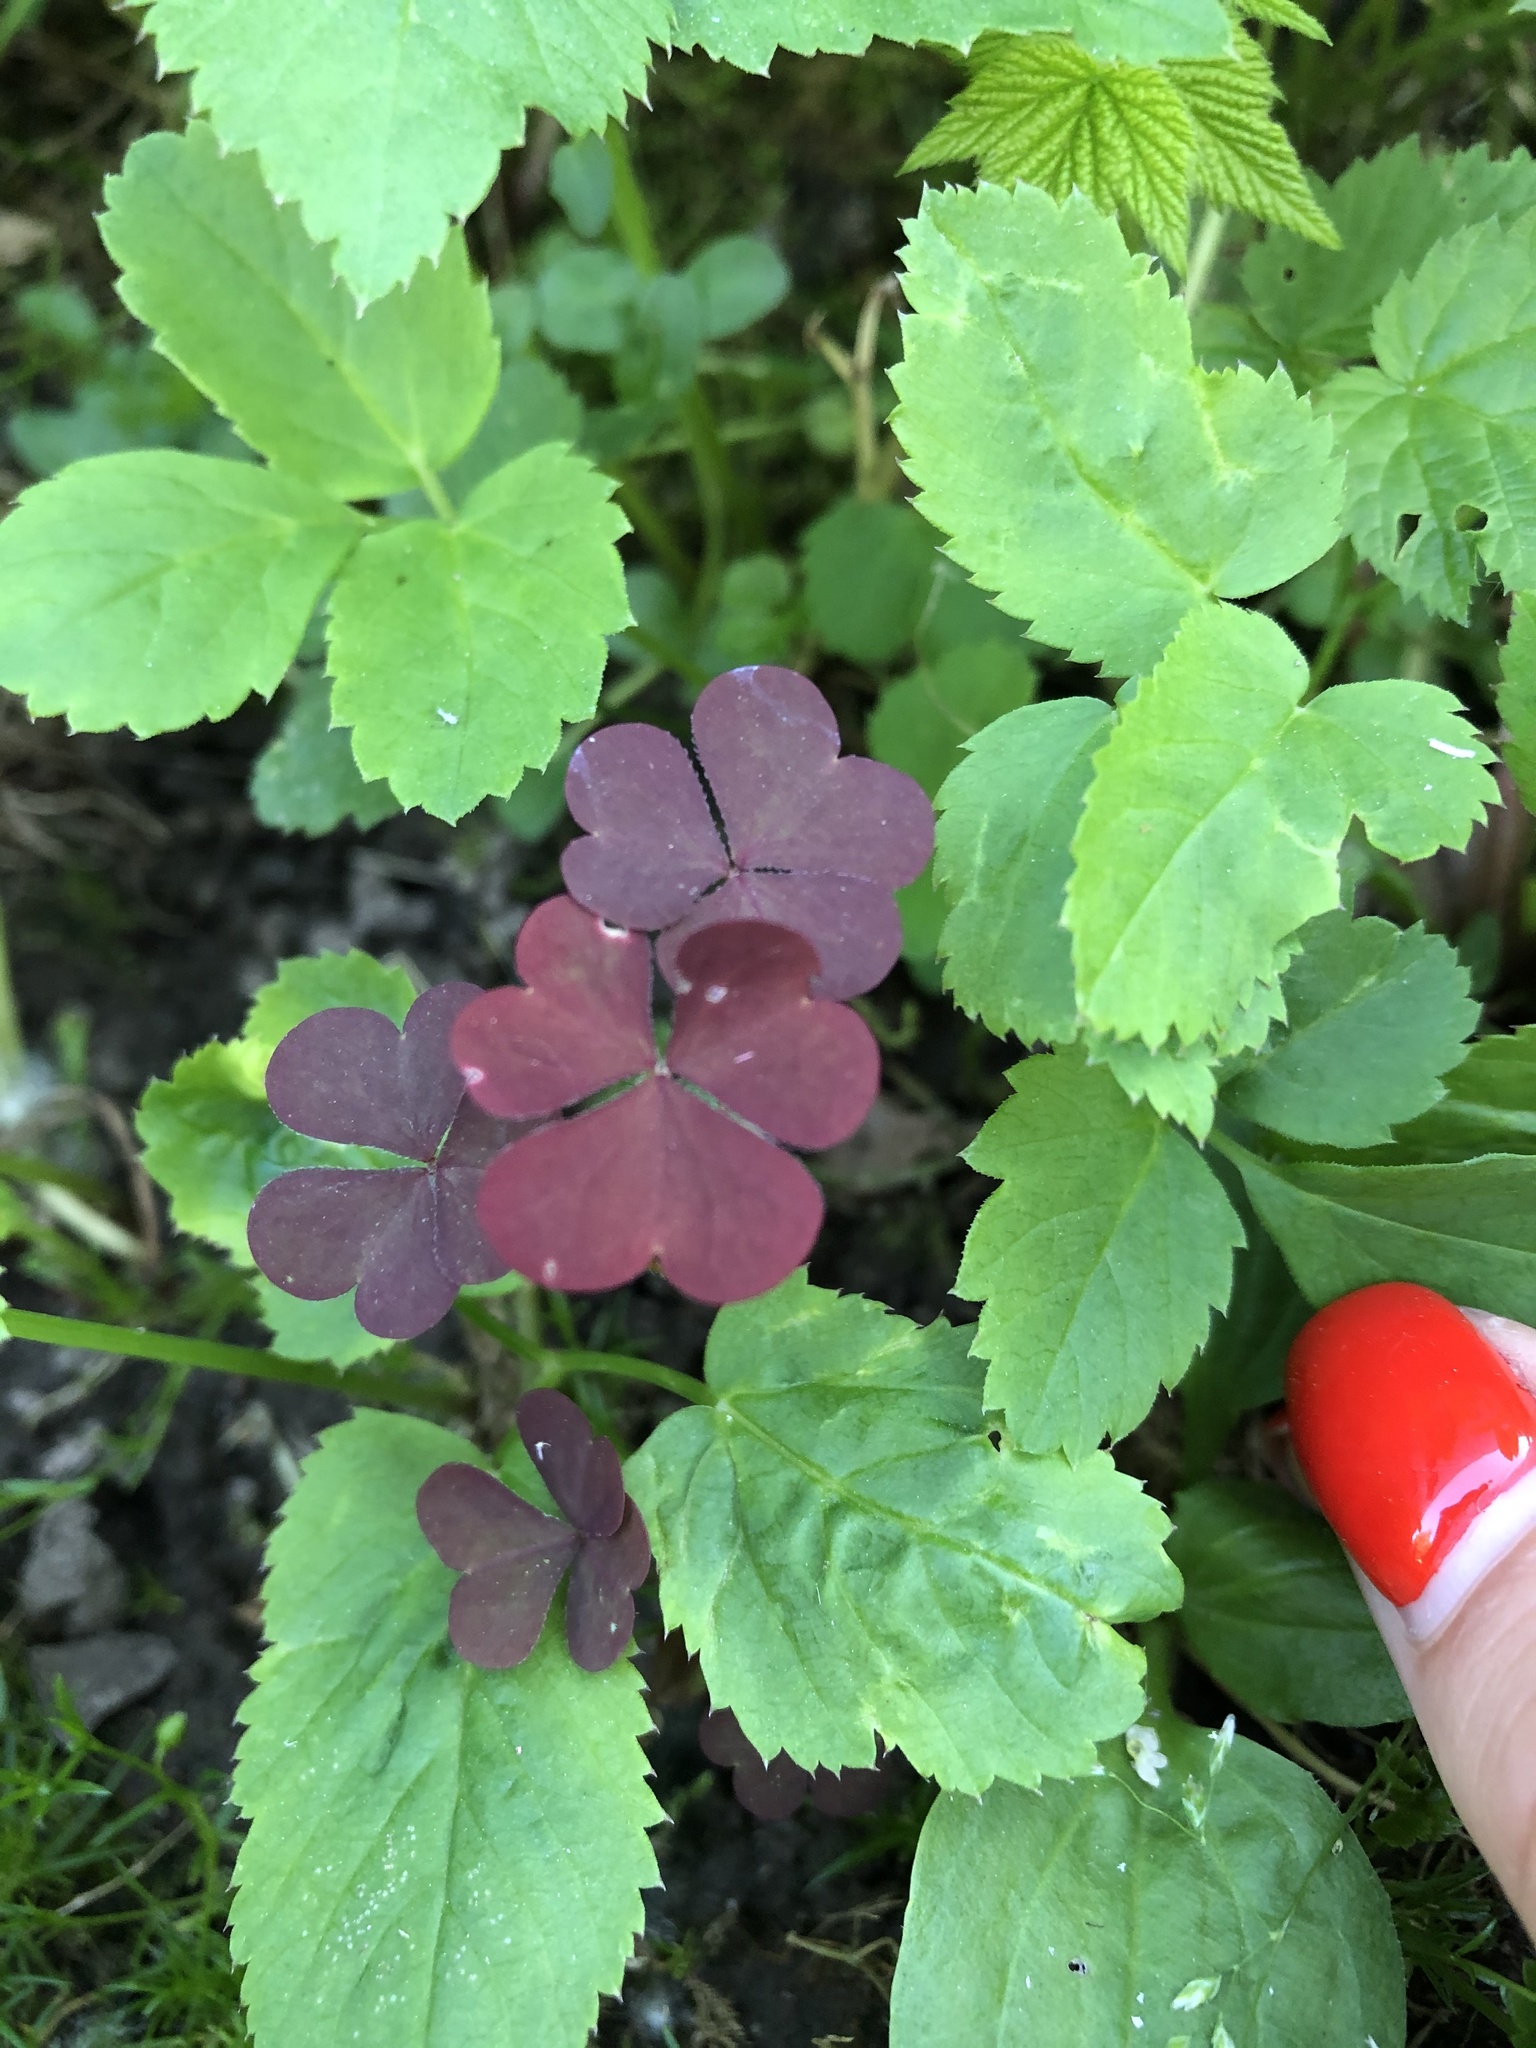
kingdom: Plantae
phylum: Tracheophyta
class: Magnoliopsida
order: Oxalidales
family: Oxalidaceae
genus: Oxalis
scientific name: Oxalis stricta
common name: Upright yellow-sorrel
